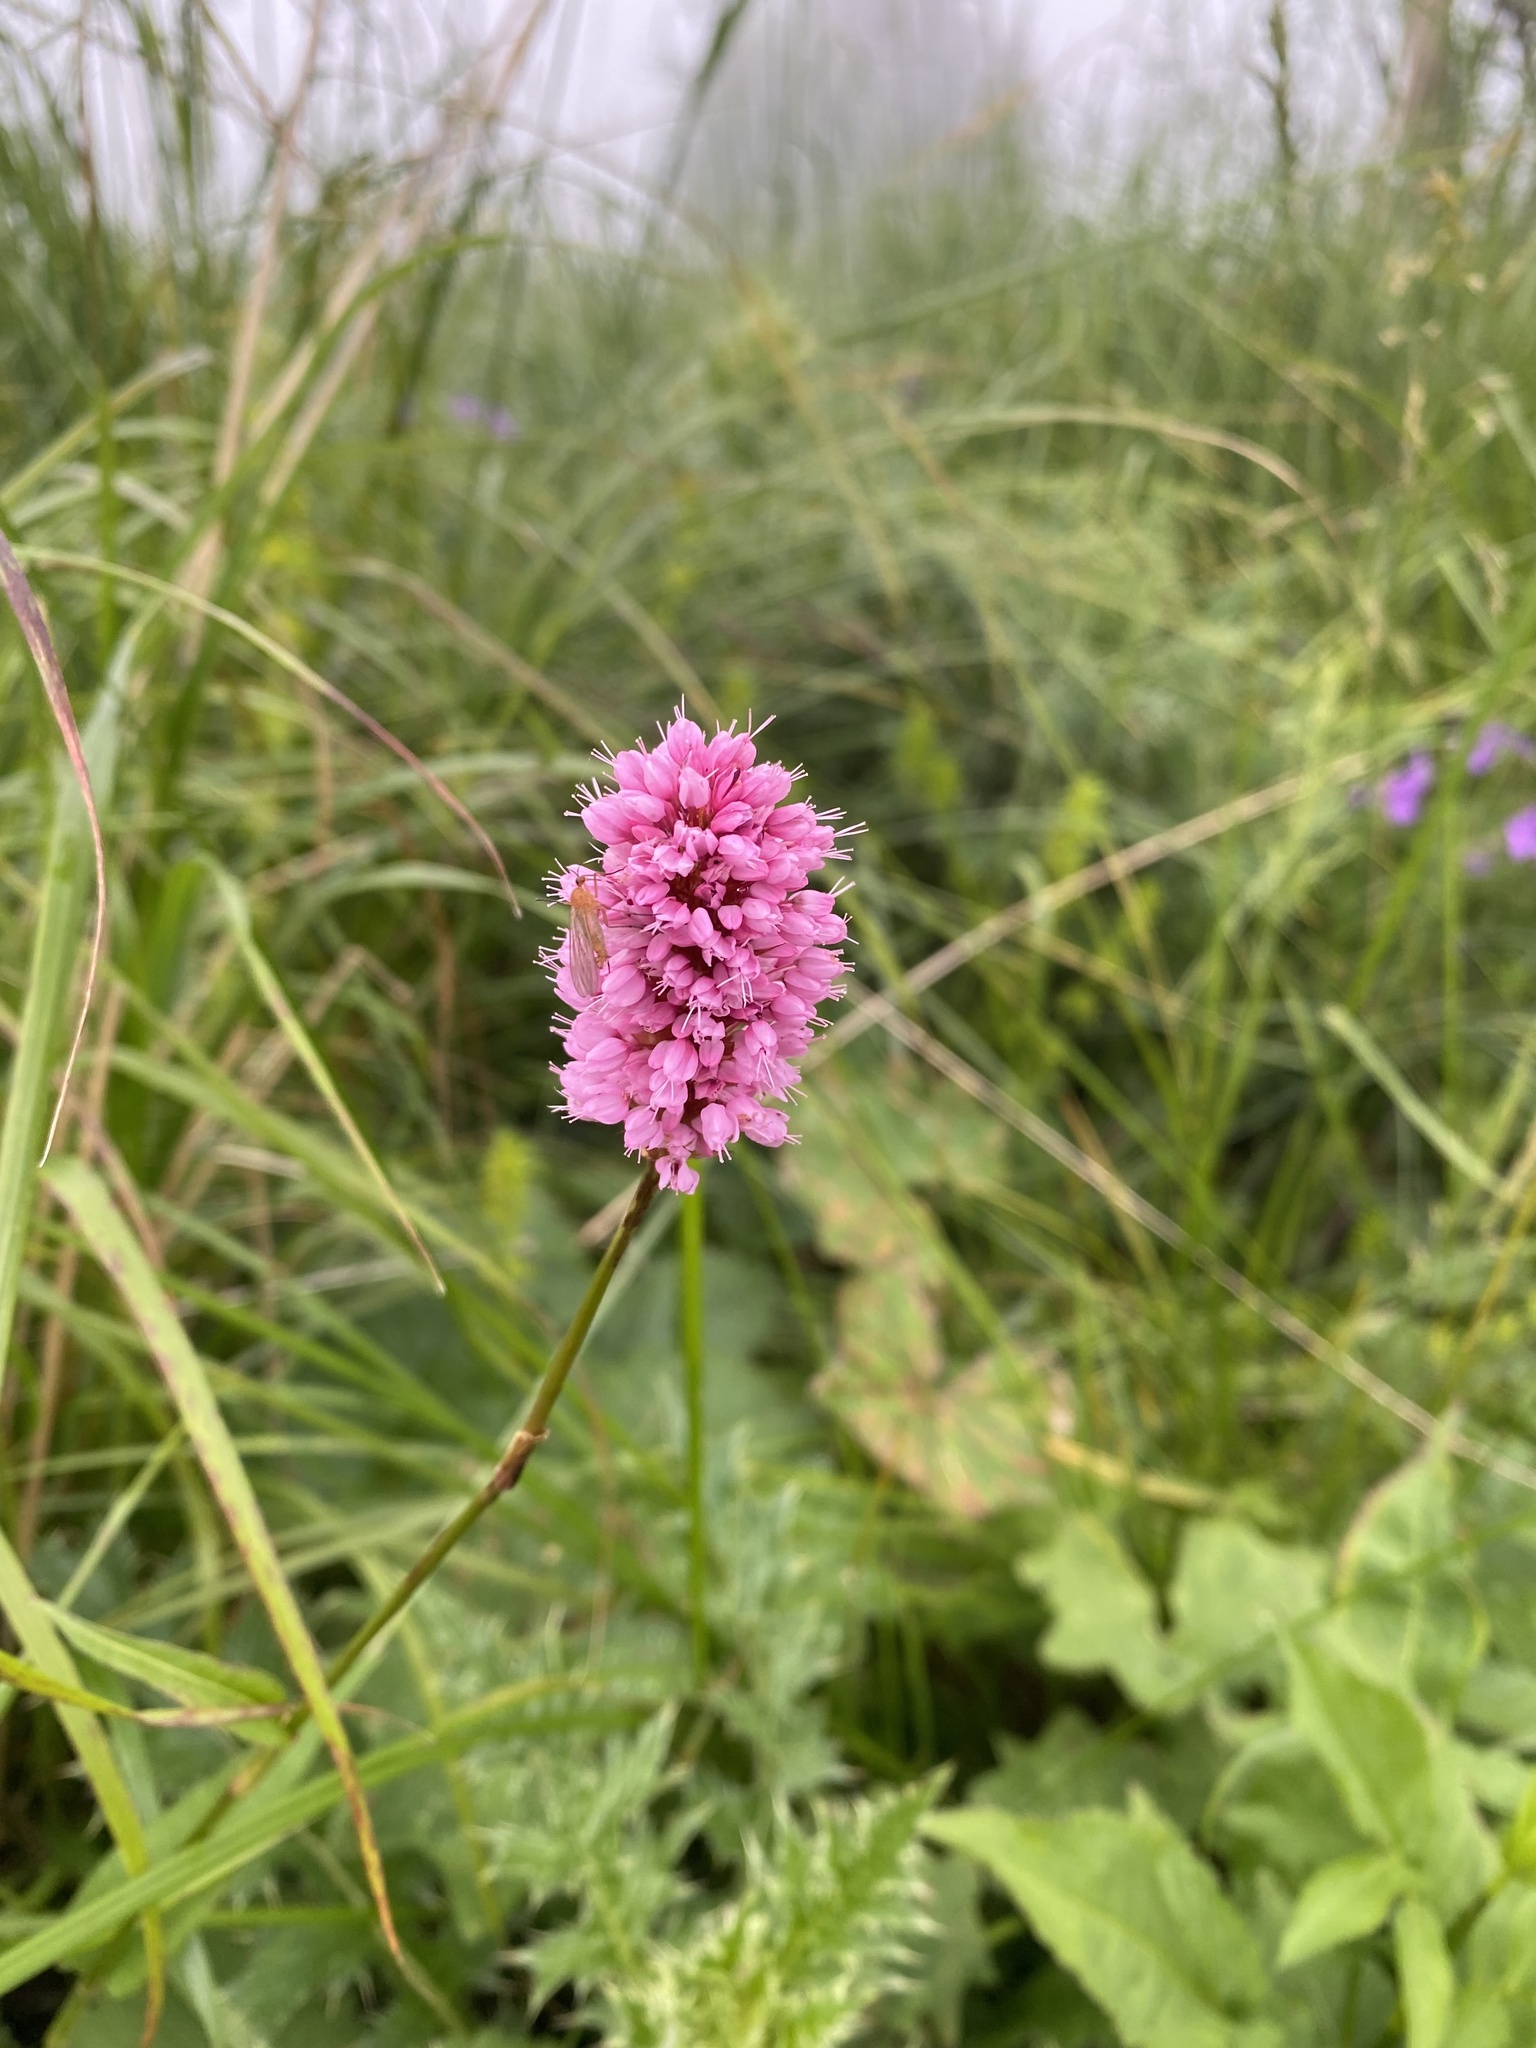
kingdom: Plantae
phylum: Tracheophyta
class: Magnoliopsida
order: Caryophyllales
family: Polygonaceae
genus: Bistorta
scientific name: Bistorta carnea
